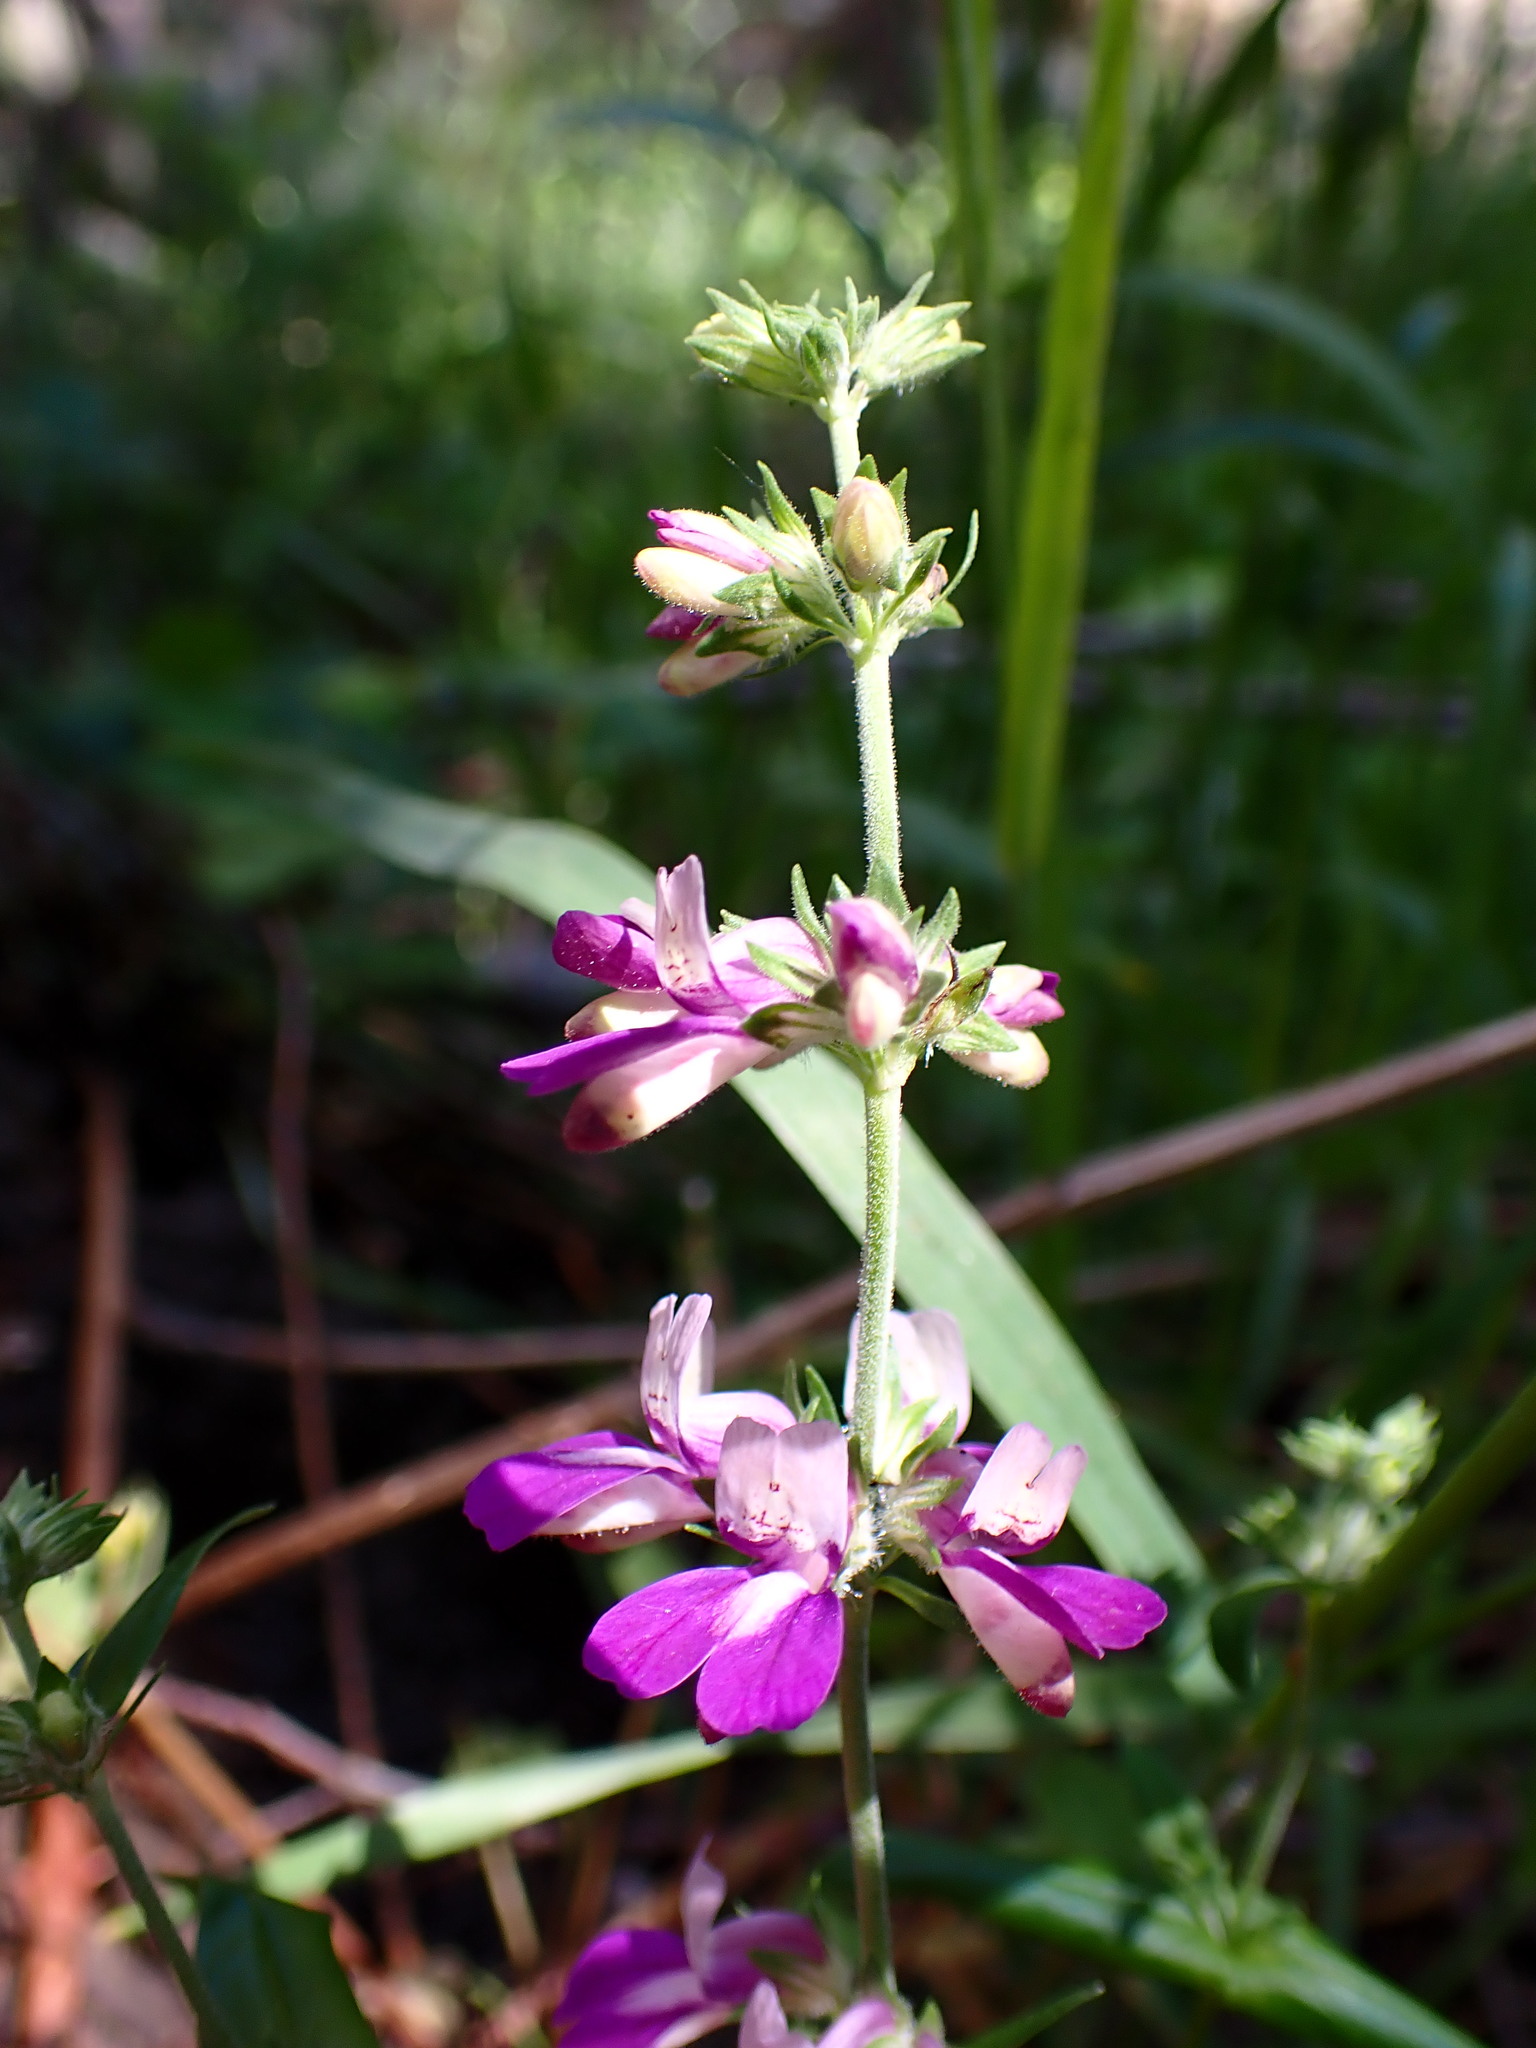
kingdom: Plantae
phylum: Tracheophyta
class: Magnoliopsida
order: Lamiales
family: Plantaginaceae
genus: Collinsia
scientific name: Collinsia heterophylla
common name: Chinese-houses
